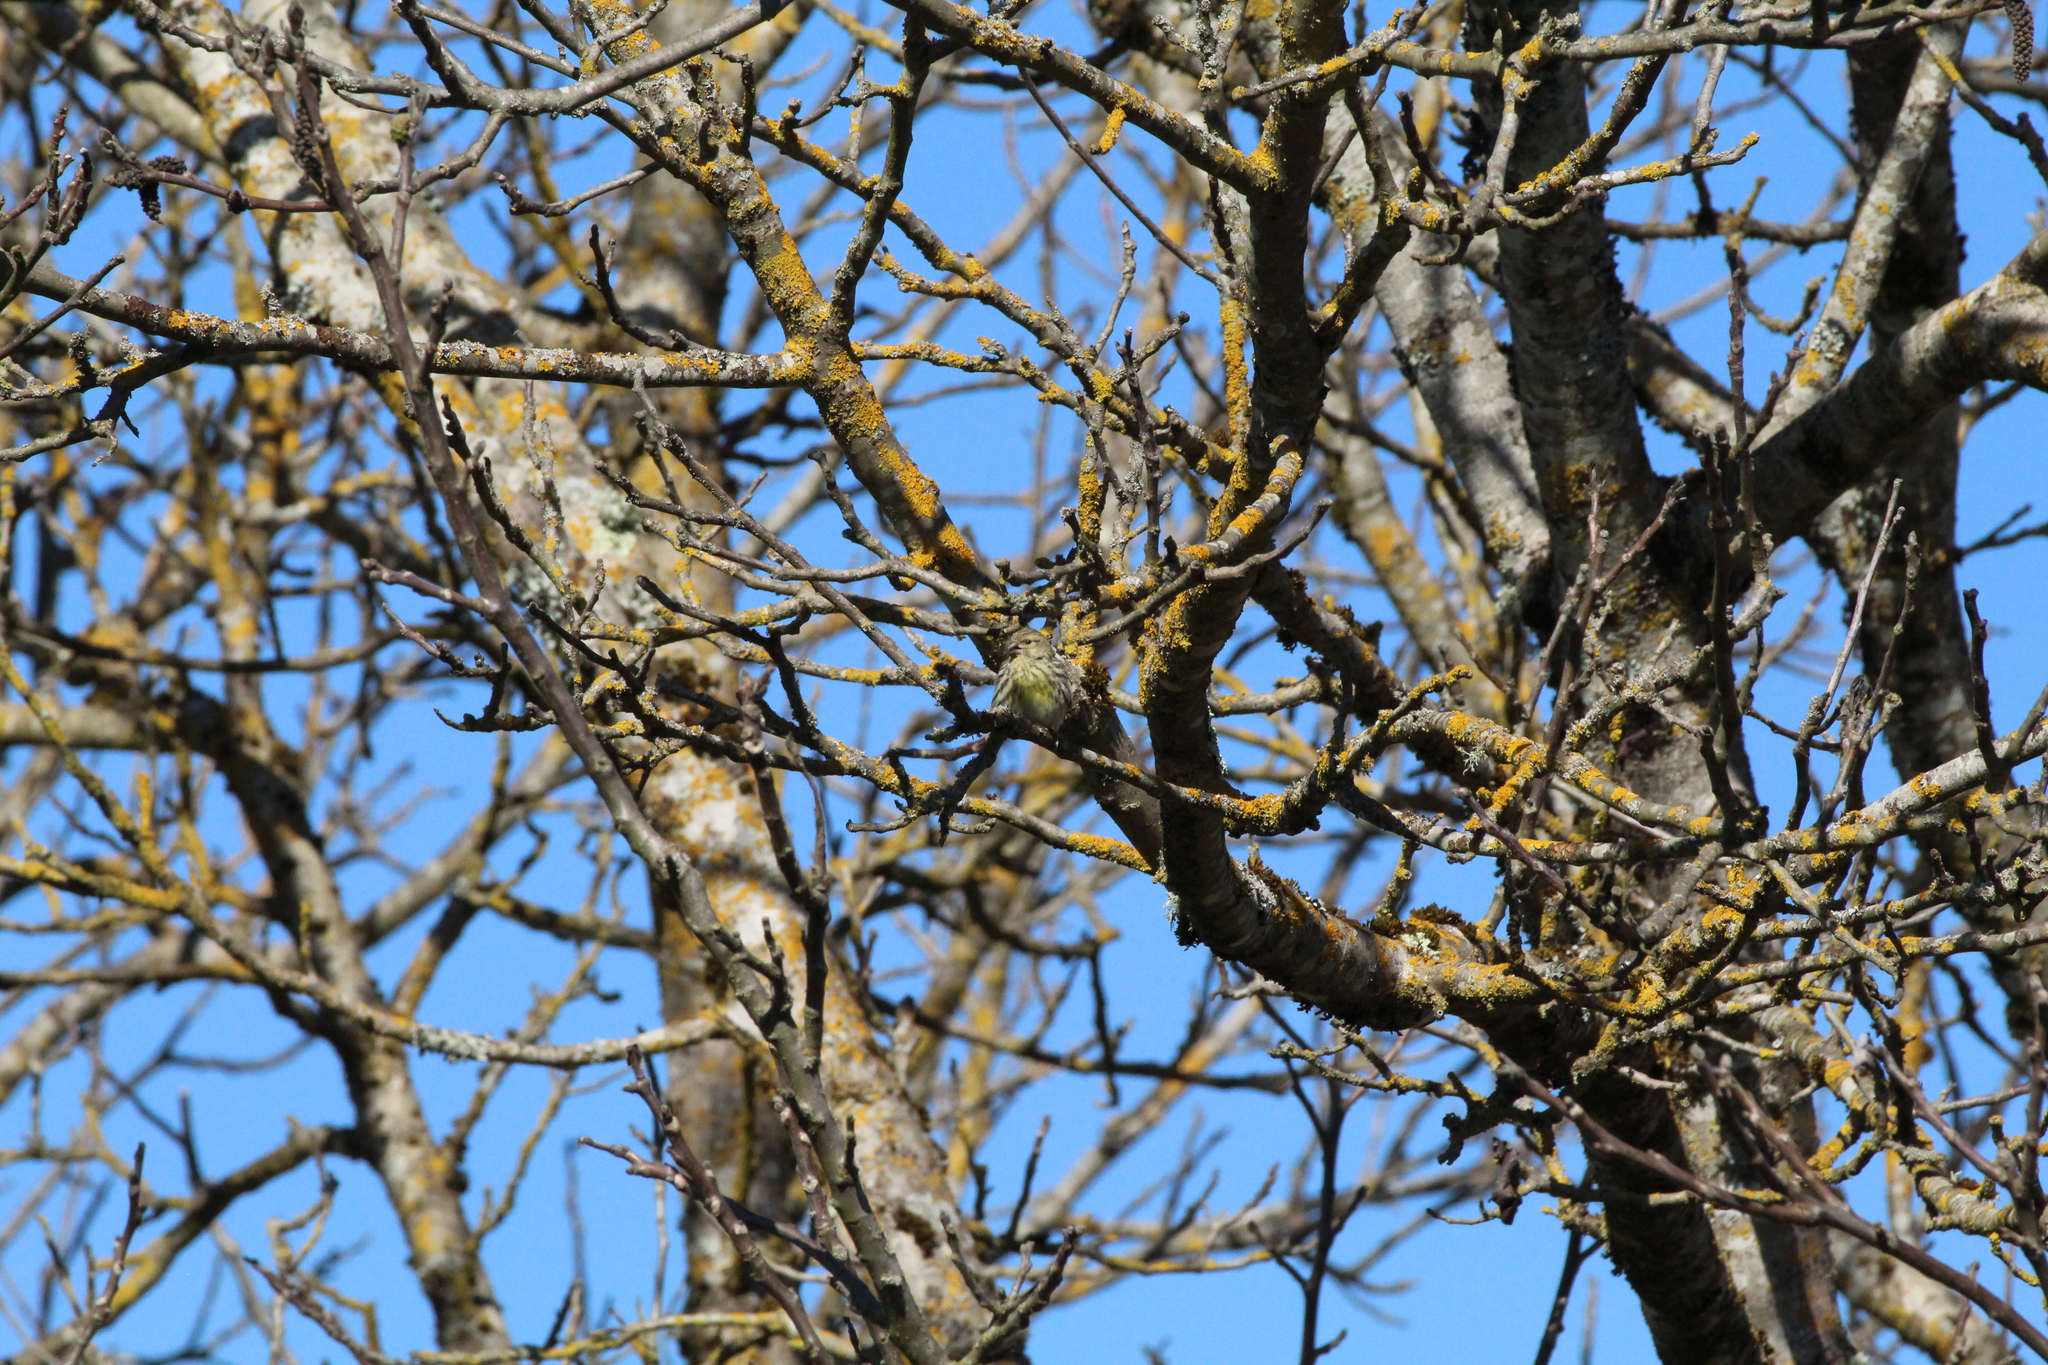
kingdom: Animalia
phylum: Chordata
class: Aves
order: Passeriformes
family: Fringillidae
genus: Serinus
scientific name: Serinus serinus
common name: European serin
